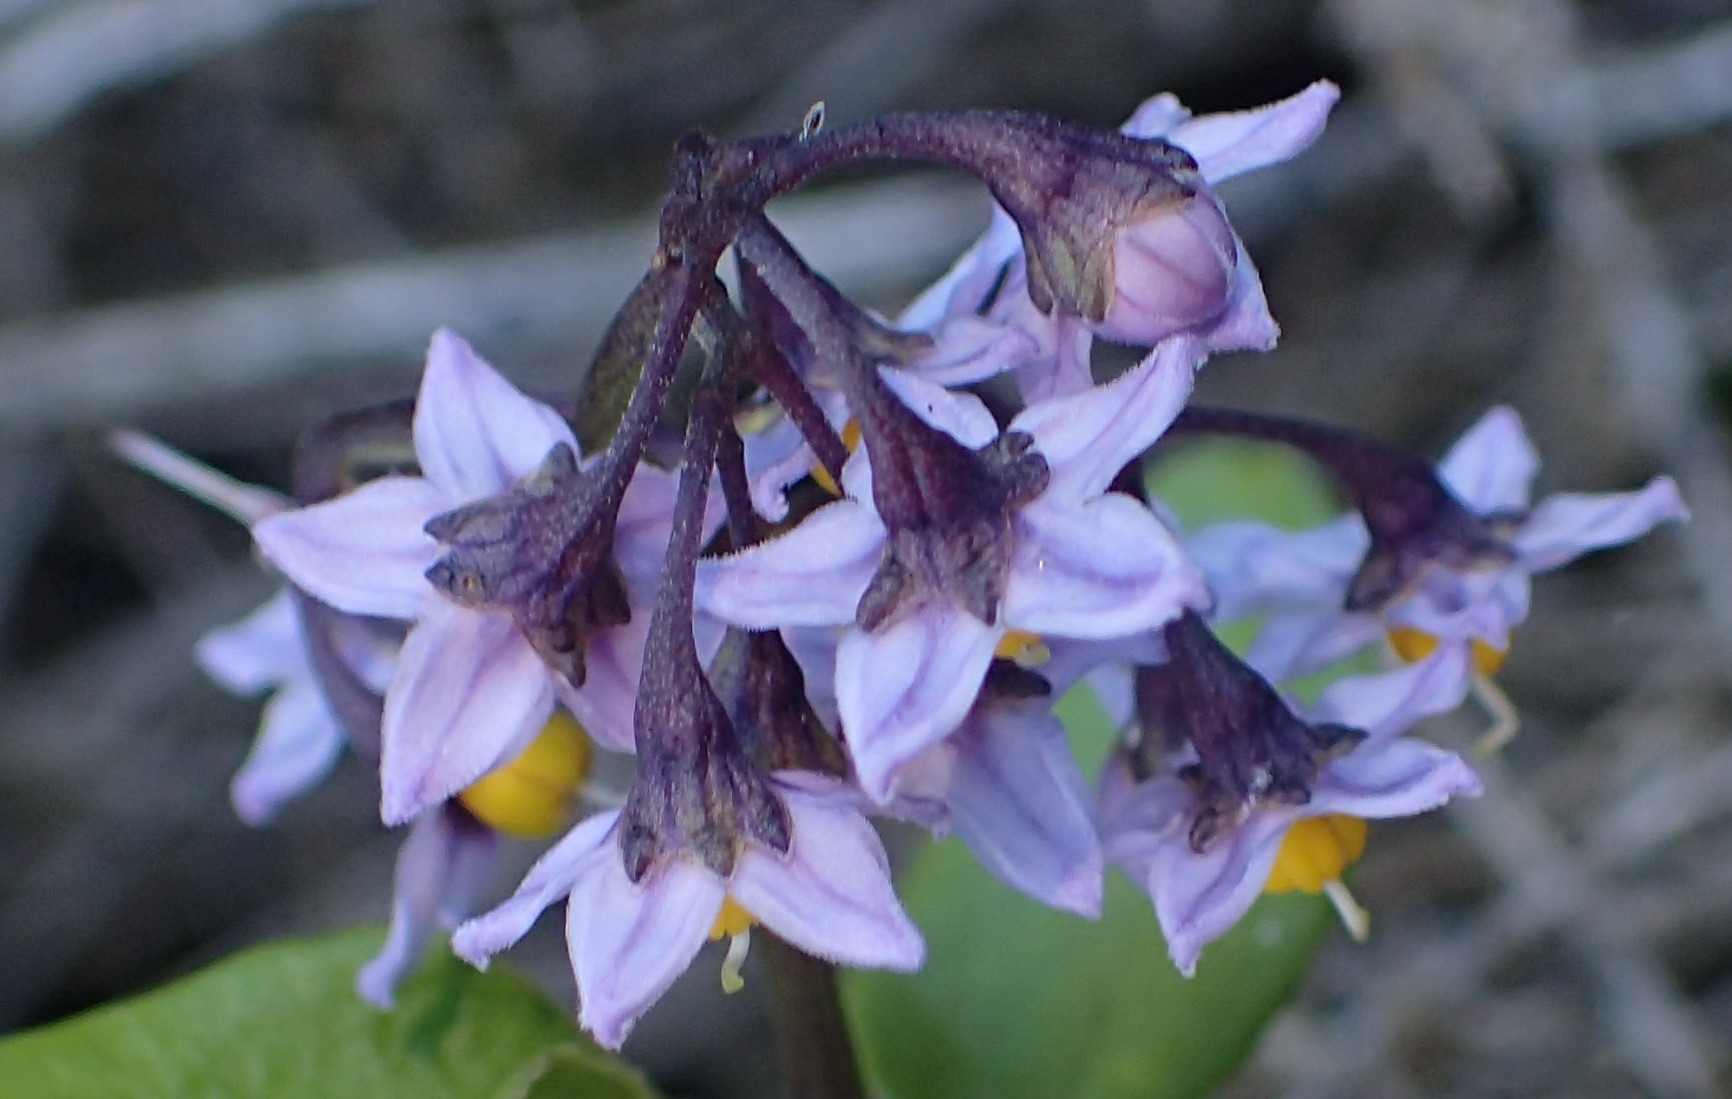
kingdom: Plantae
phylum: Tracheophyta
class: Magnoliopsida
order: Solanales
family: Solanaceae
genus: Solanum
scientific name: Solanum africanum
